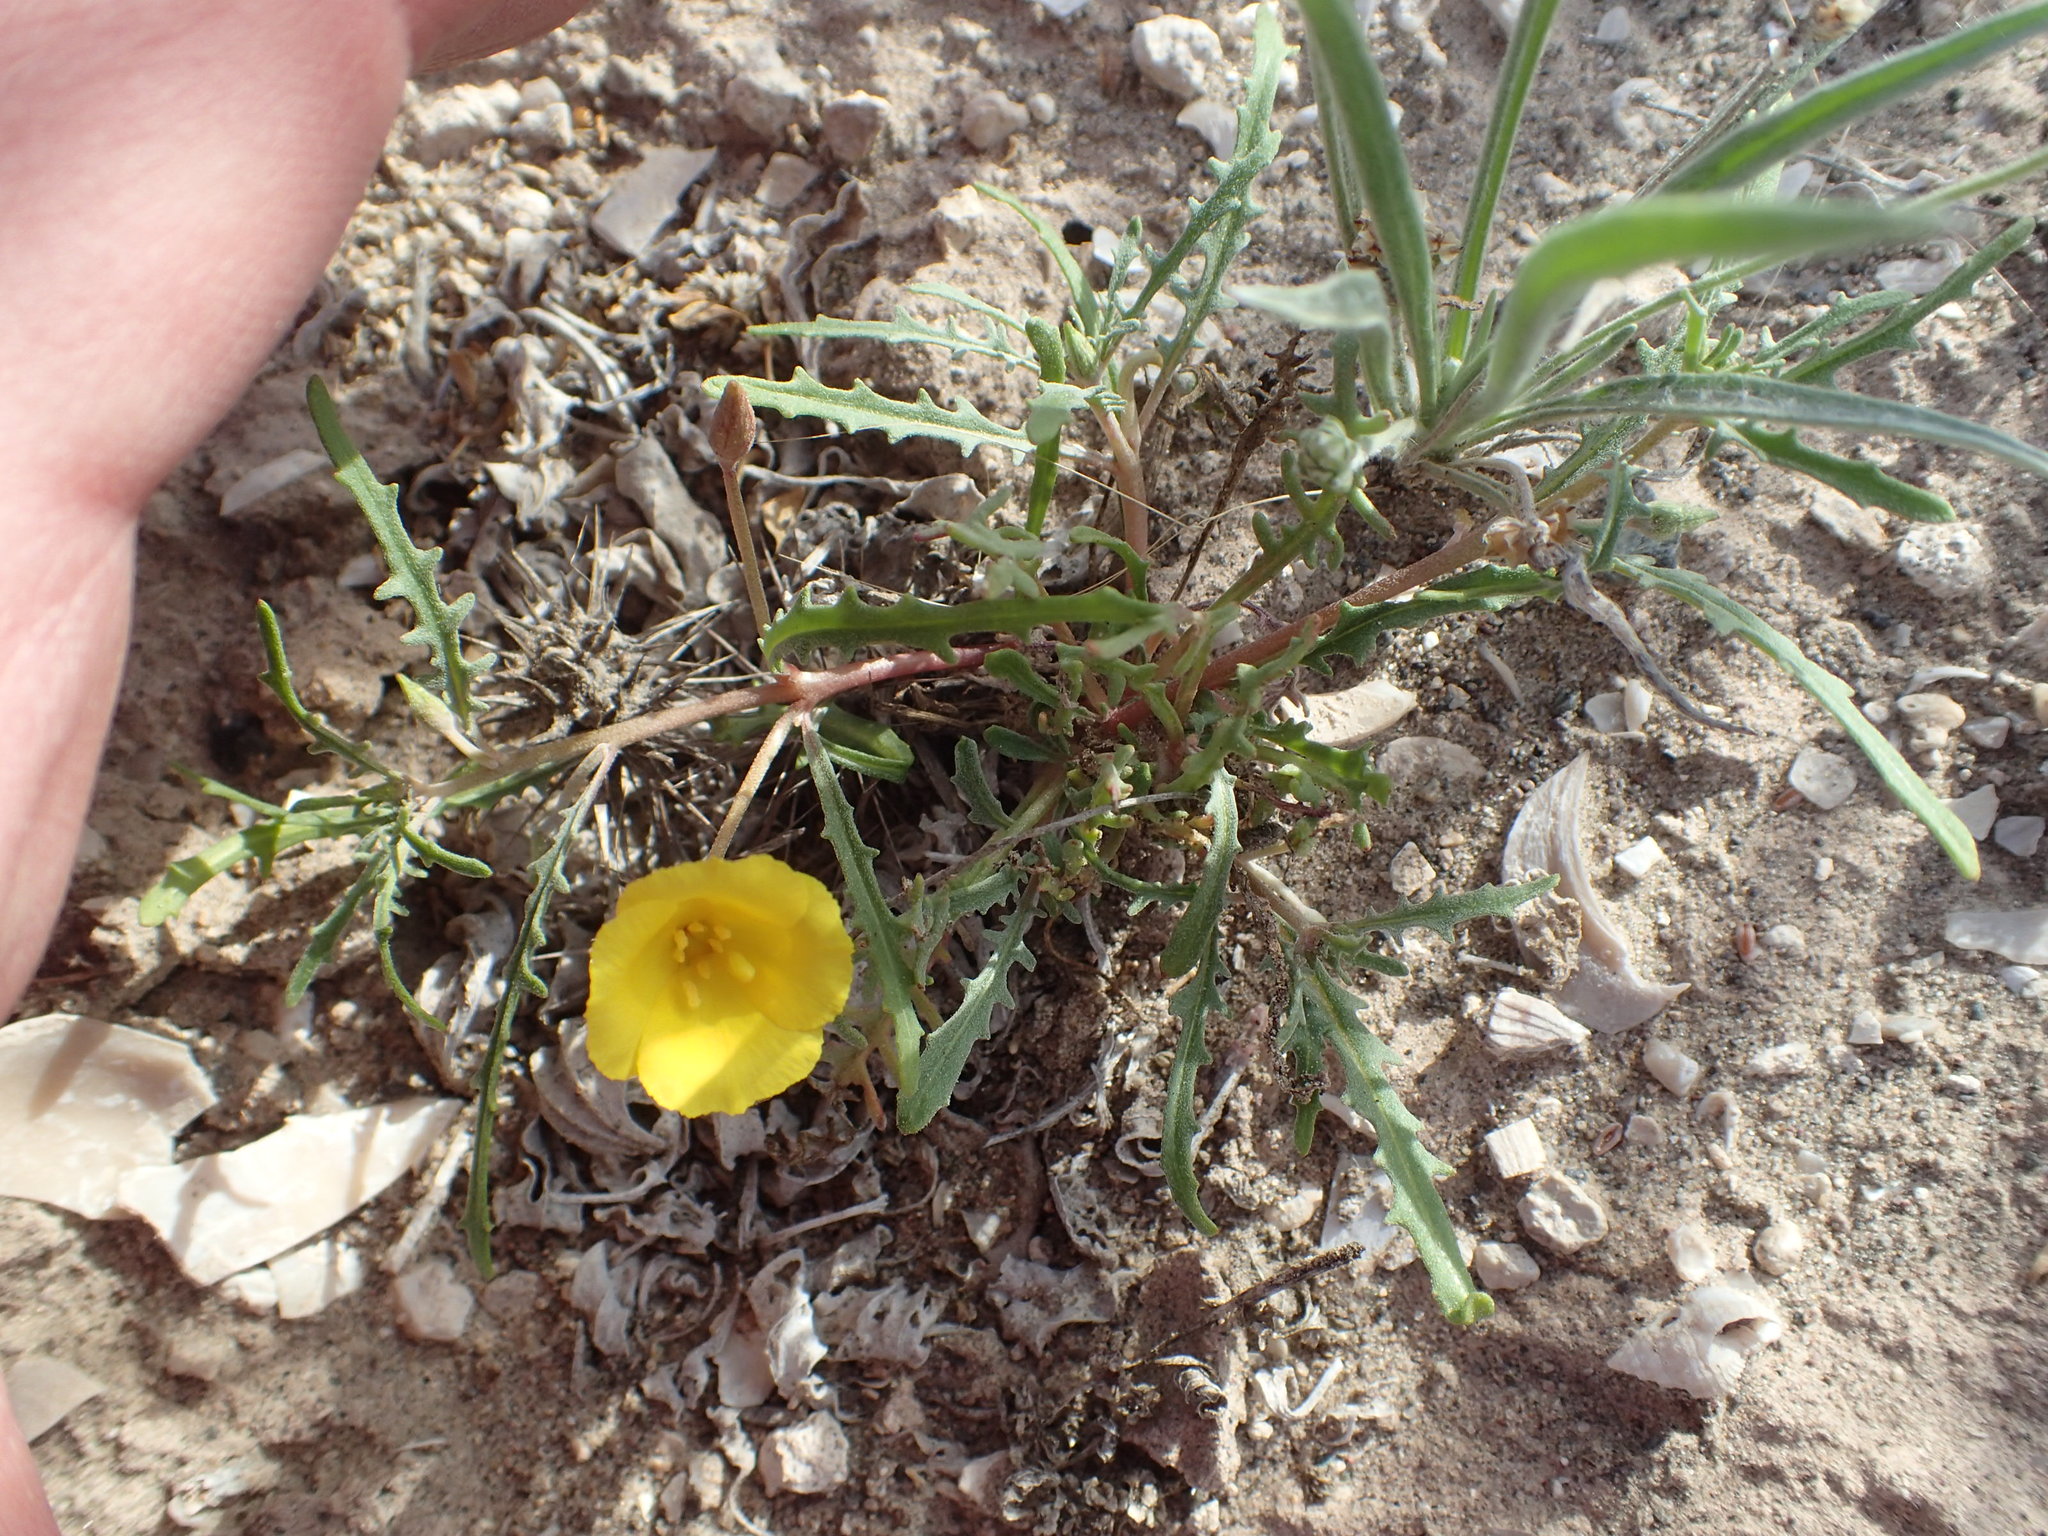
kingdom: Plantae
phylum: Tracheophyta
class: Magnoliopsida
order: Myrtales
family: Onagraceae
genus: Eulobus
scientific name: Eulobus angelorum
